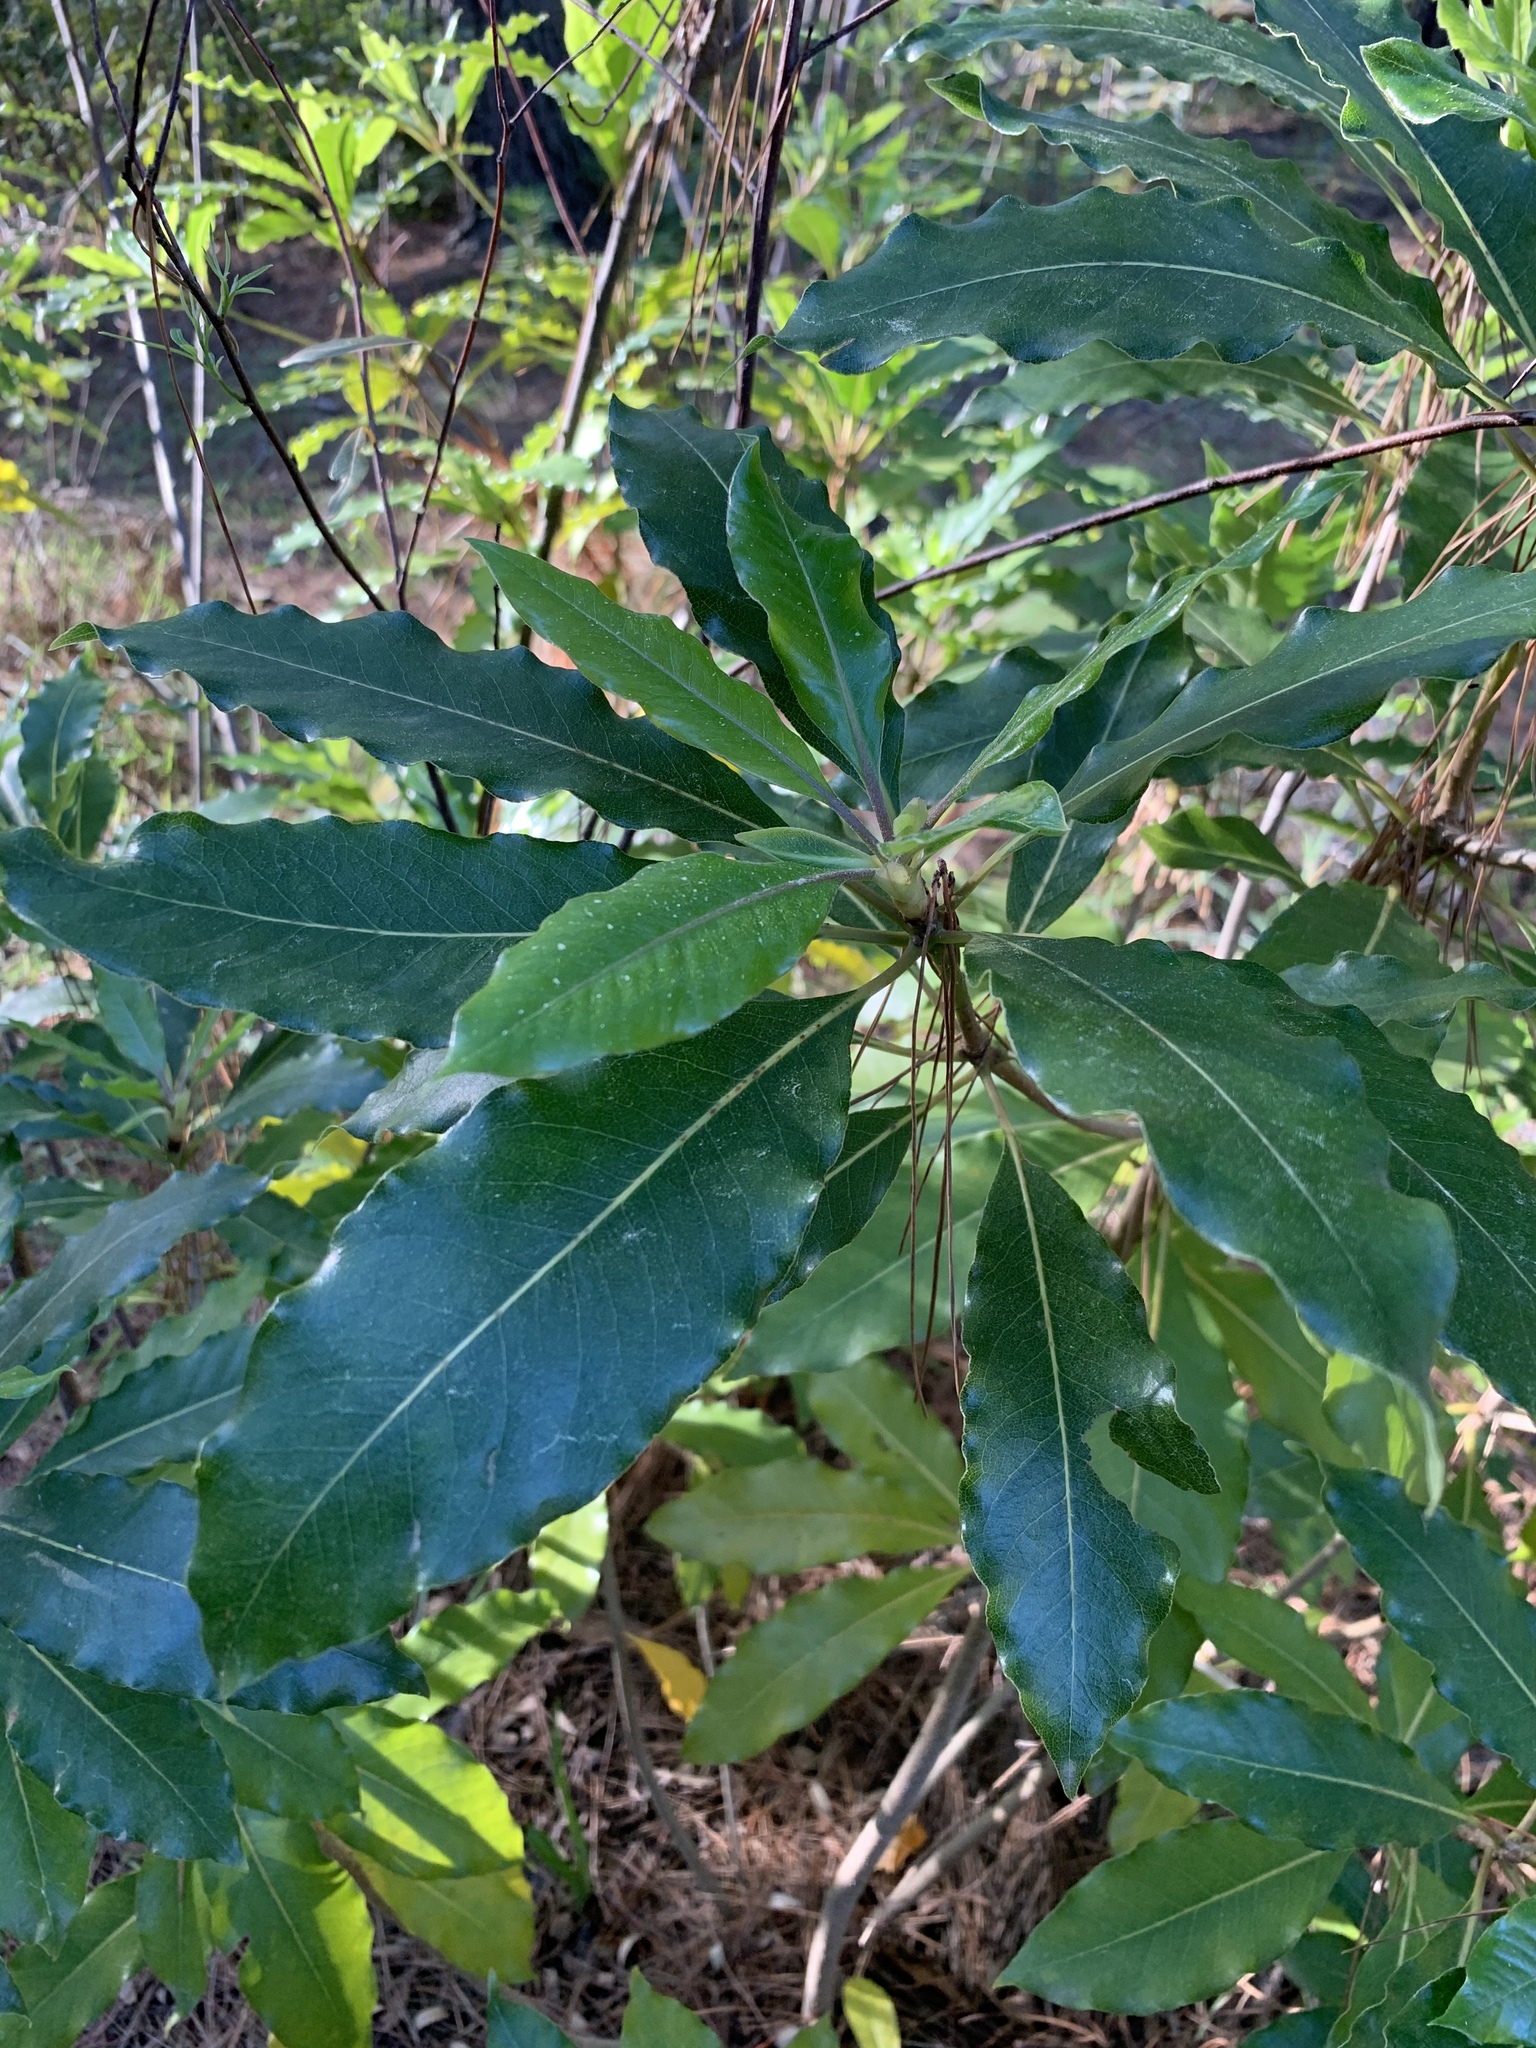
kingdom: Plantae
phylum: Tracheophyta
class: Magnoliopsida
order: Apiales
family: Pittosporaceae
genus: Pittosporum
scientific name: Pittosporum undulatum
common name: Australian cheesewood
